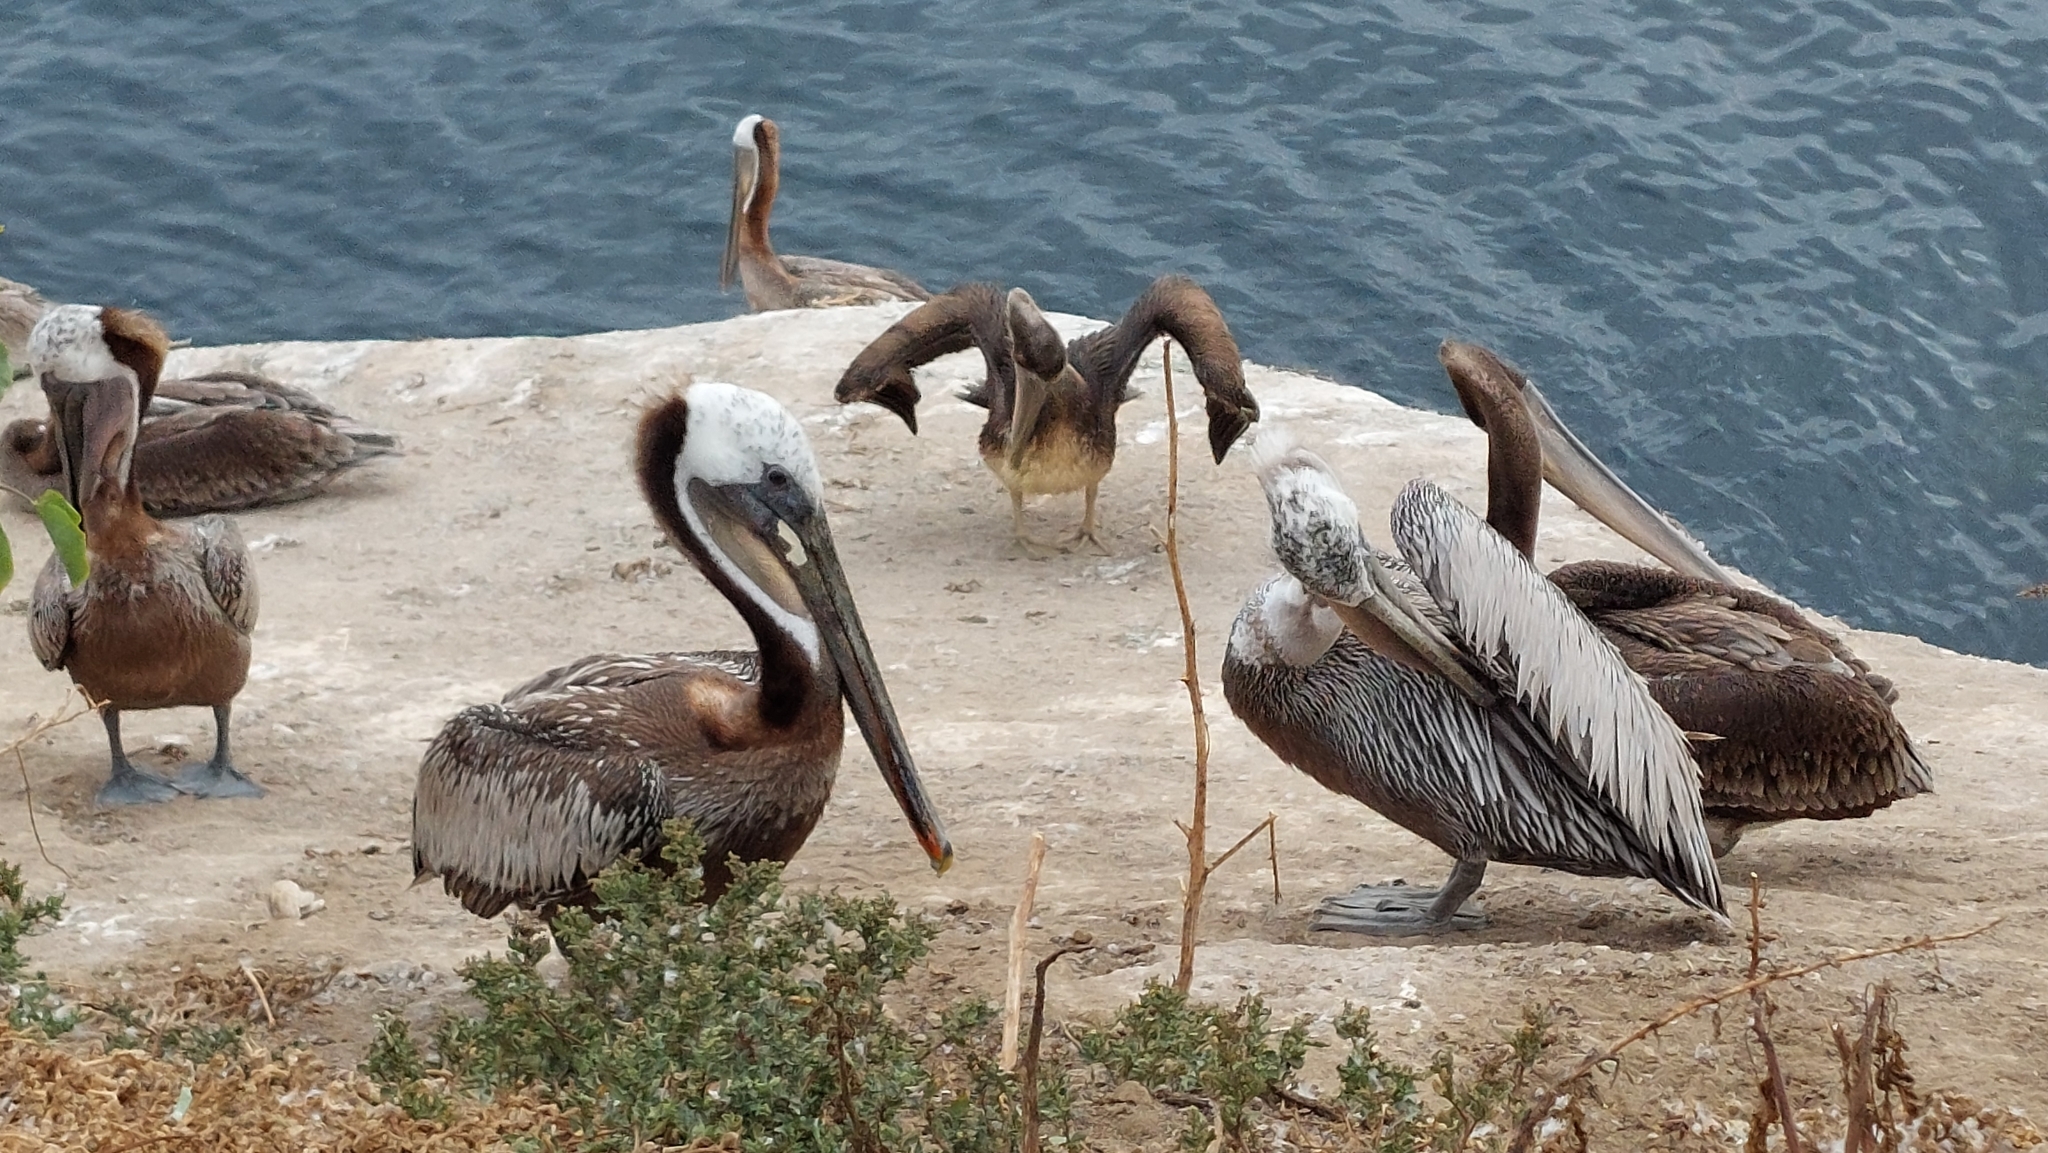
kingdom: Animalia
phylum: Chordata
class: Aves
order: Pelecaniformes
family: Pelecanidae
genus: Pelecanus
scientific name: Pelecanus occidentalis
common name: Brown pelican
